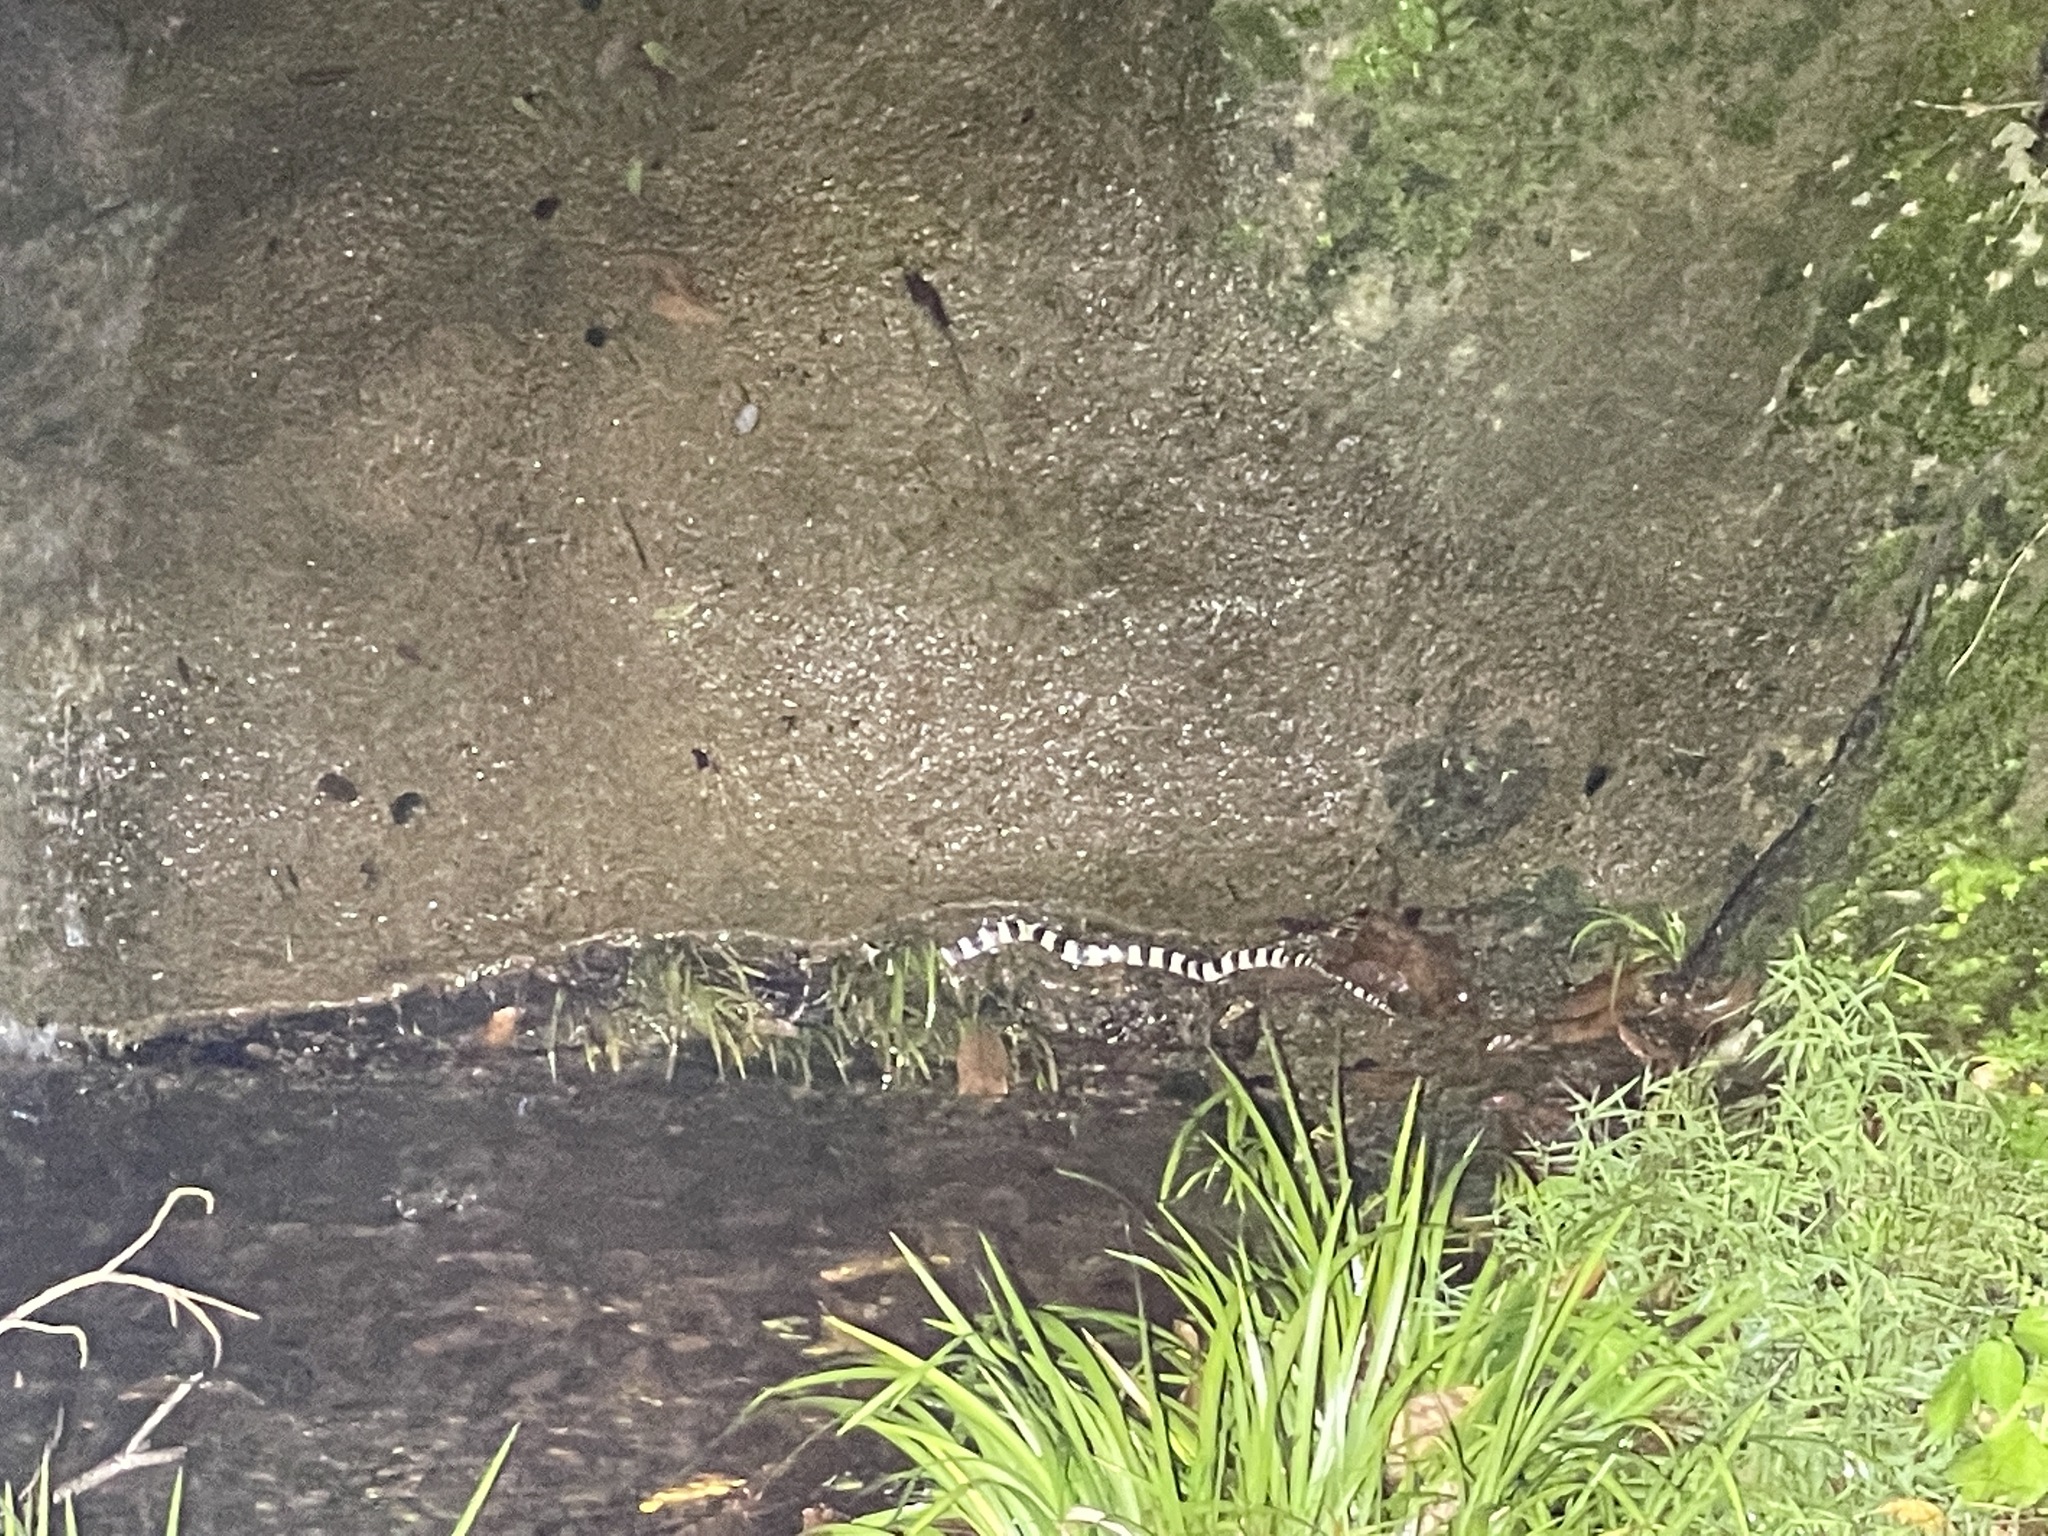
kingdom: Animalia
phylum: Chordata
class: Squamata
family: Elapidae
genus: Bungarus
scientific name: Bungarus multicinctus
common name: Many-banded krait
